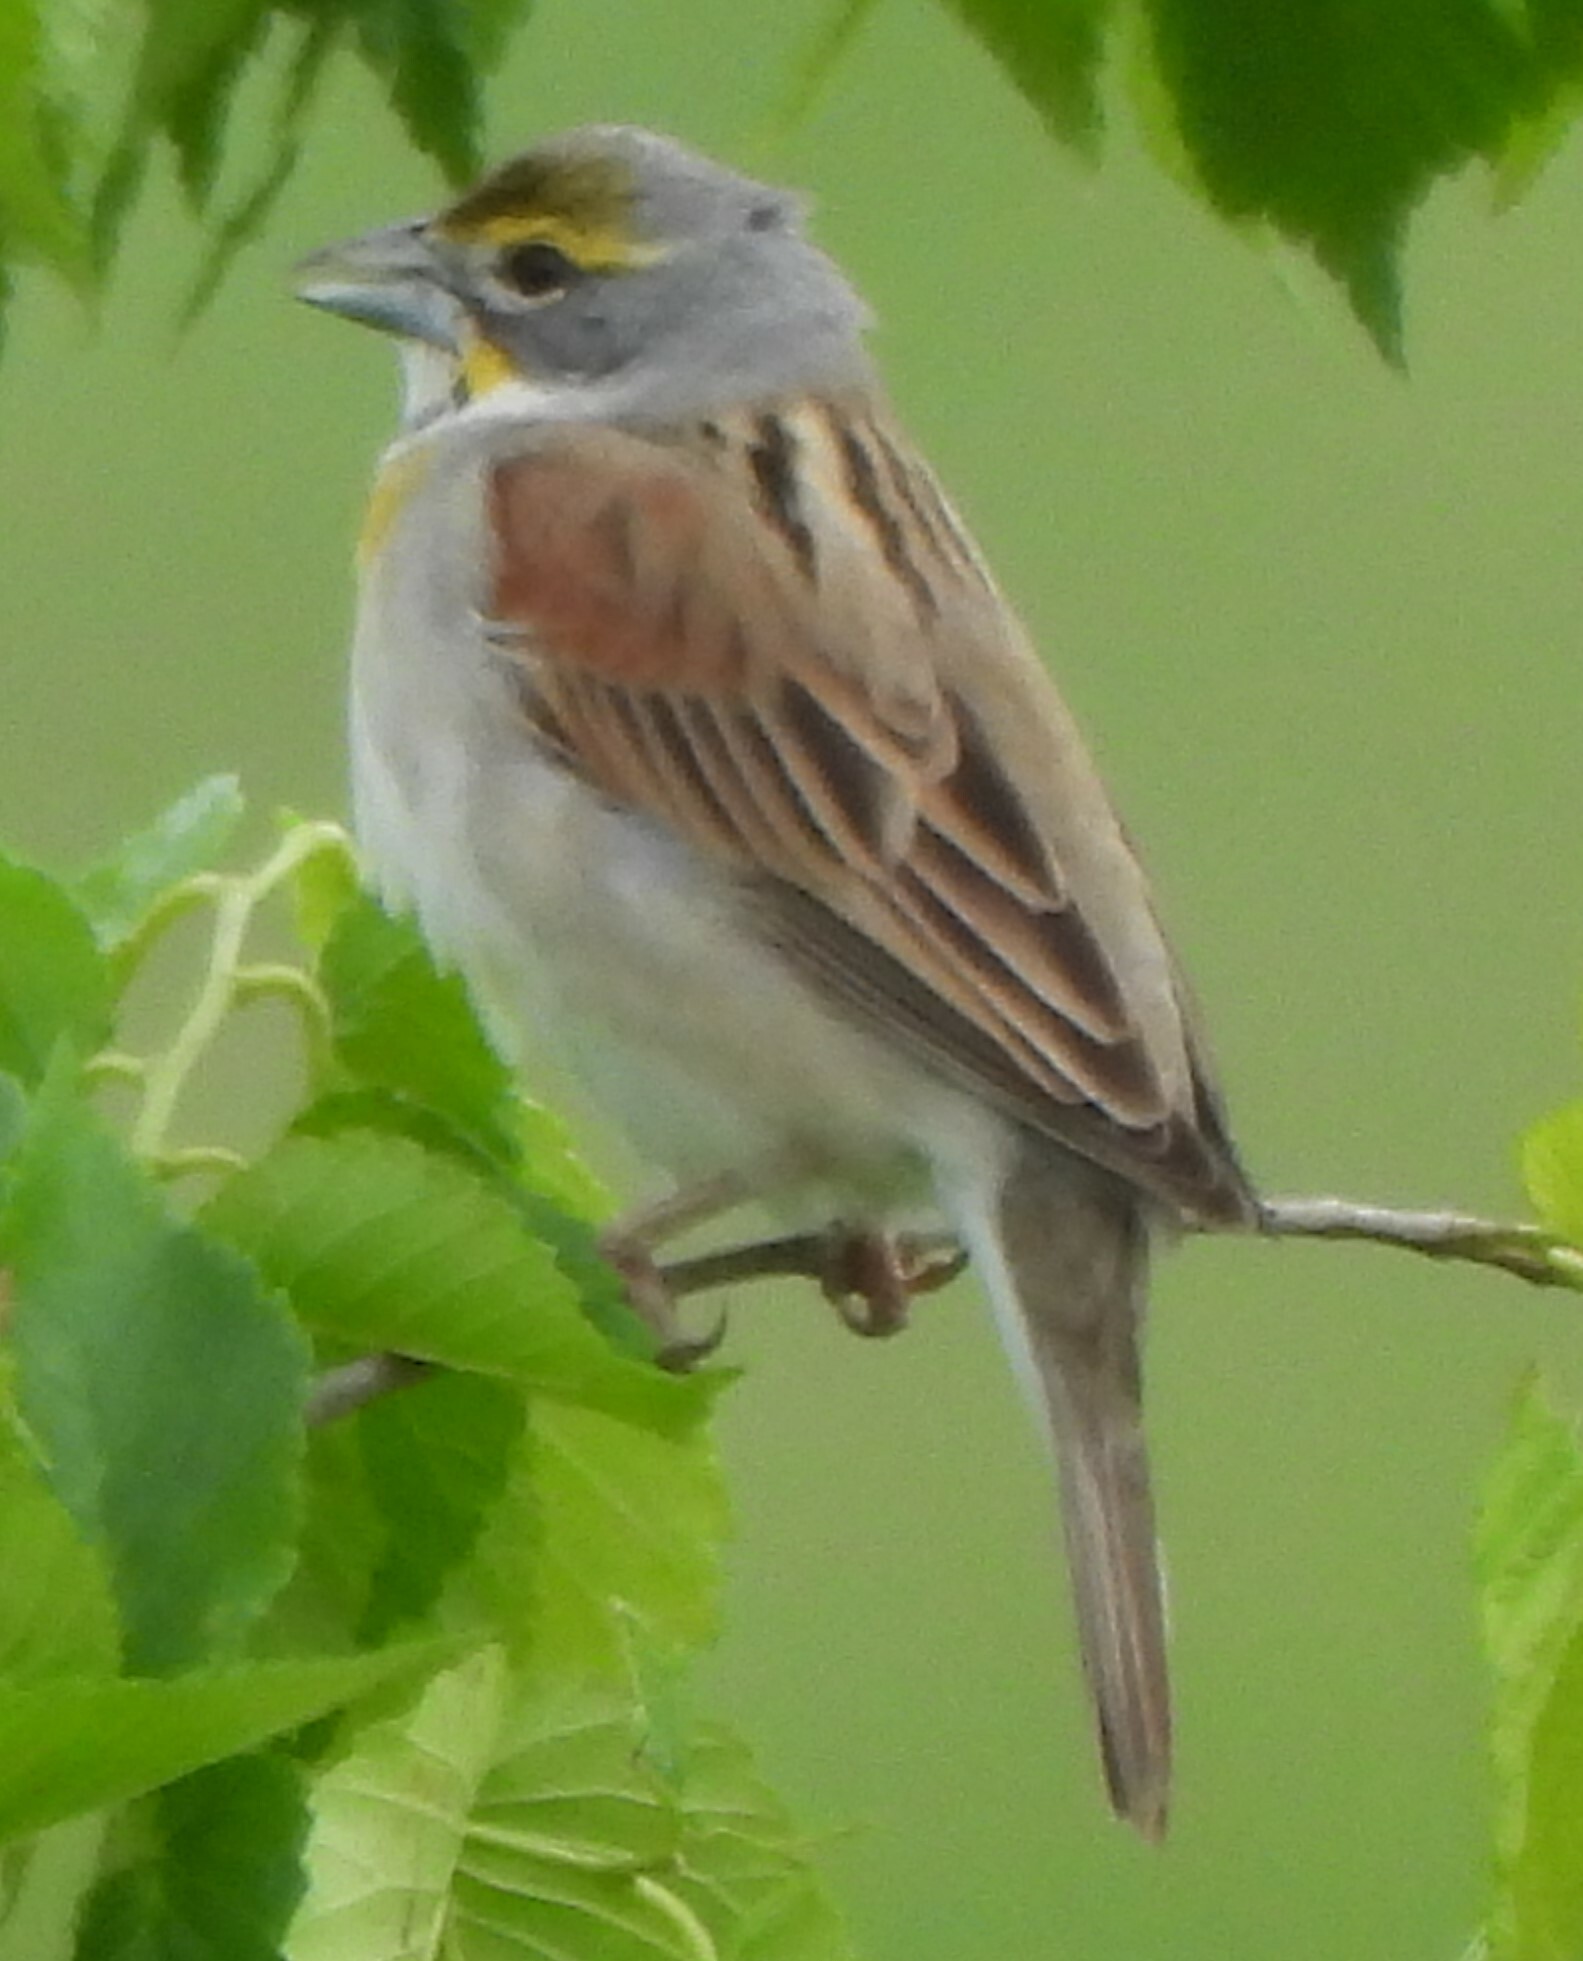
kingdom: Animalia
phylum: Chordata
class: Aves
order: Passeriformes
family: Cardinalidae
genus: Spiza
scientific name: Spiza americana
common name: Dickcissel
